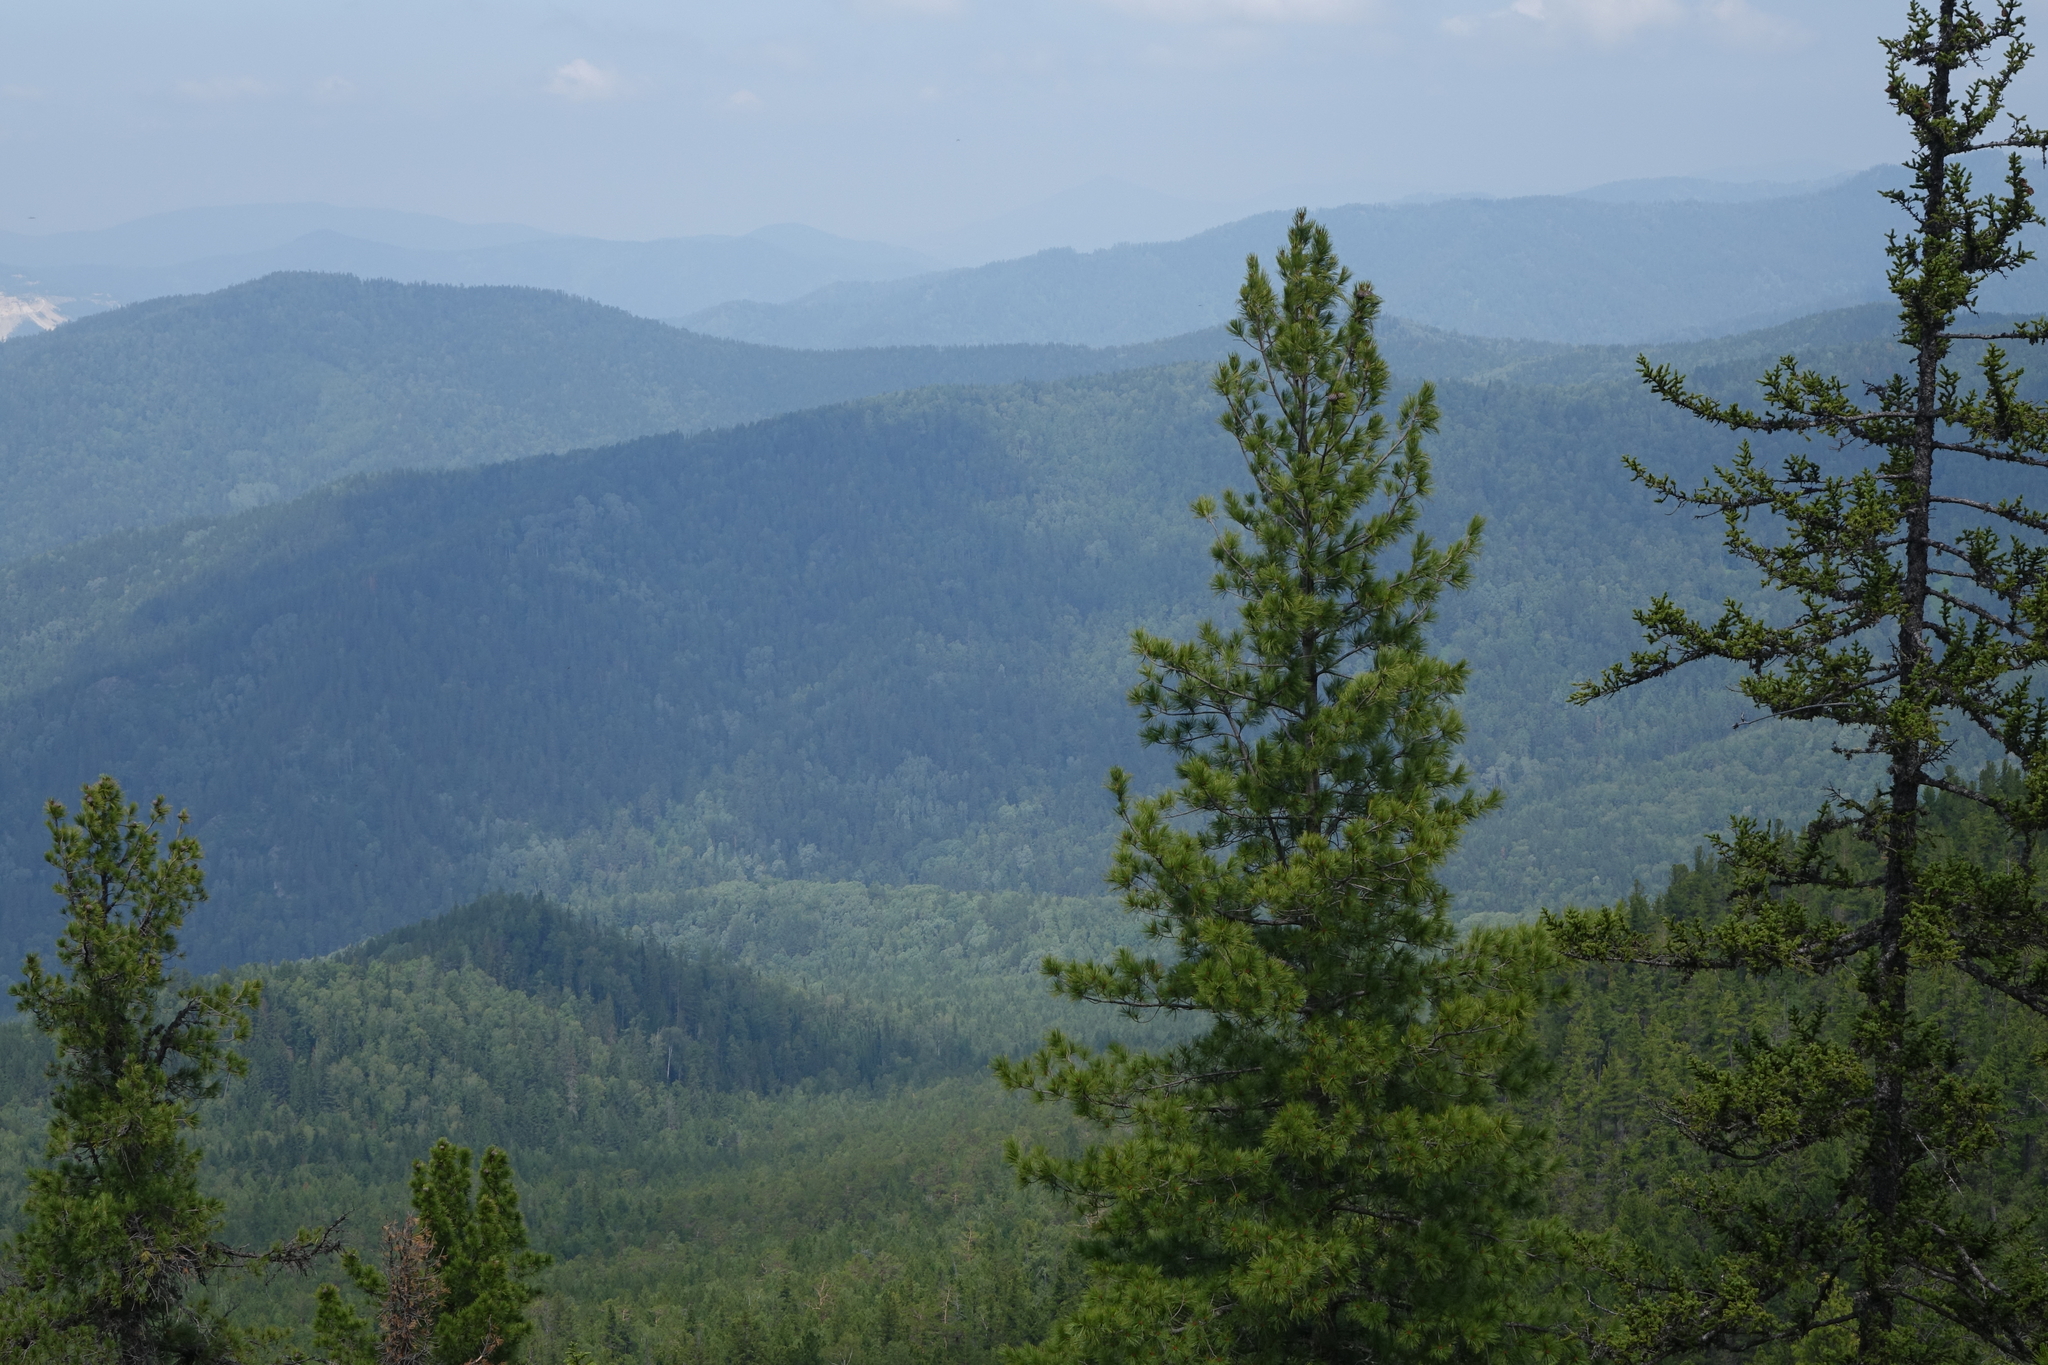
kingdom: Plantae
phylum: Tracheophyta
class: Pinopsida
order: Pinales
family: Pinaceae
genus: Picea
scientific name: Picea obovata
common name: Siberian spruce
